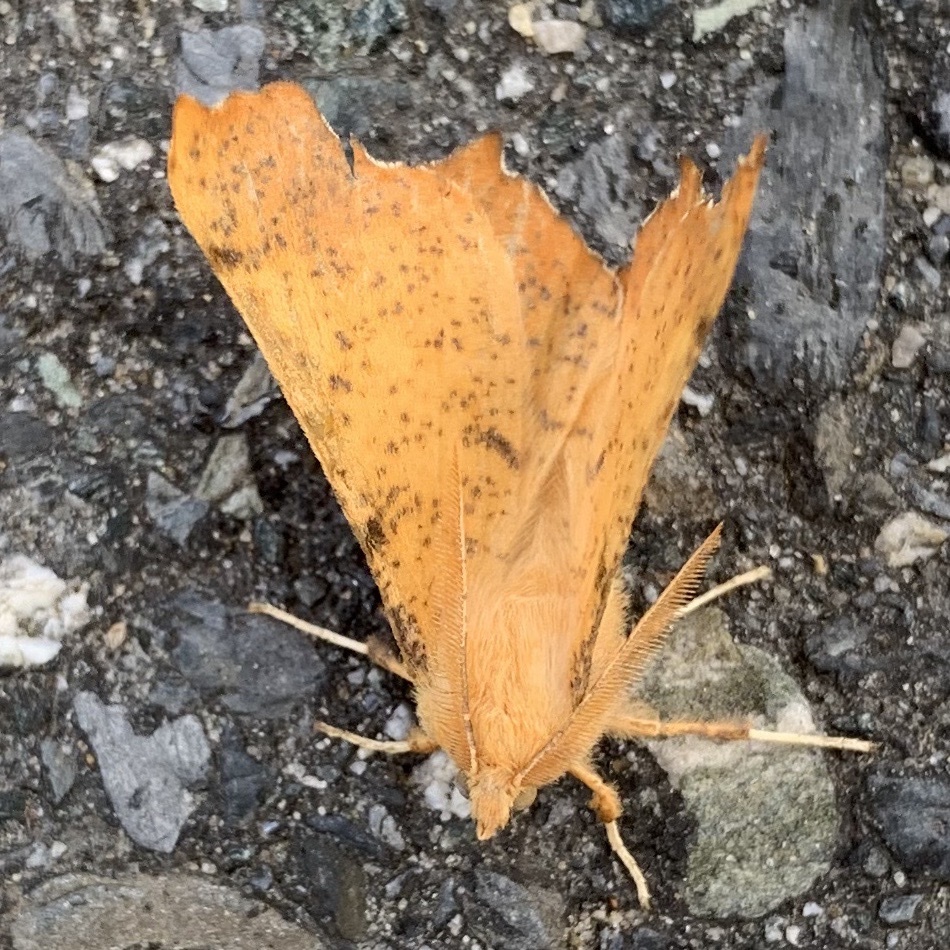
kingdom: Animalia
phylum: Arthropoda
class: Insecta
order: Lepidoptera
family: Geometridae
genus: Ennomos
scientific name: Ennomos magnaria
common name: Maple spanworm
